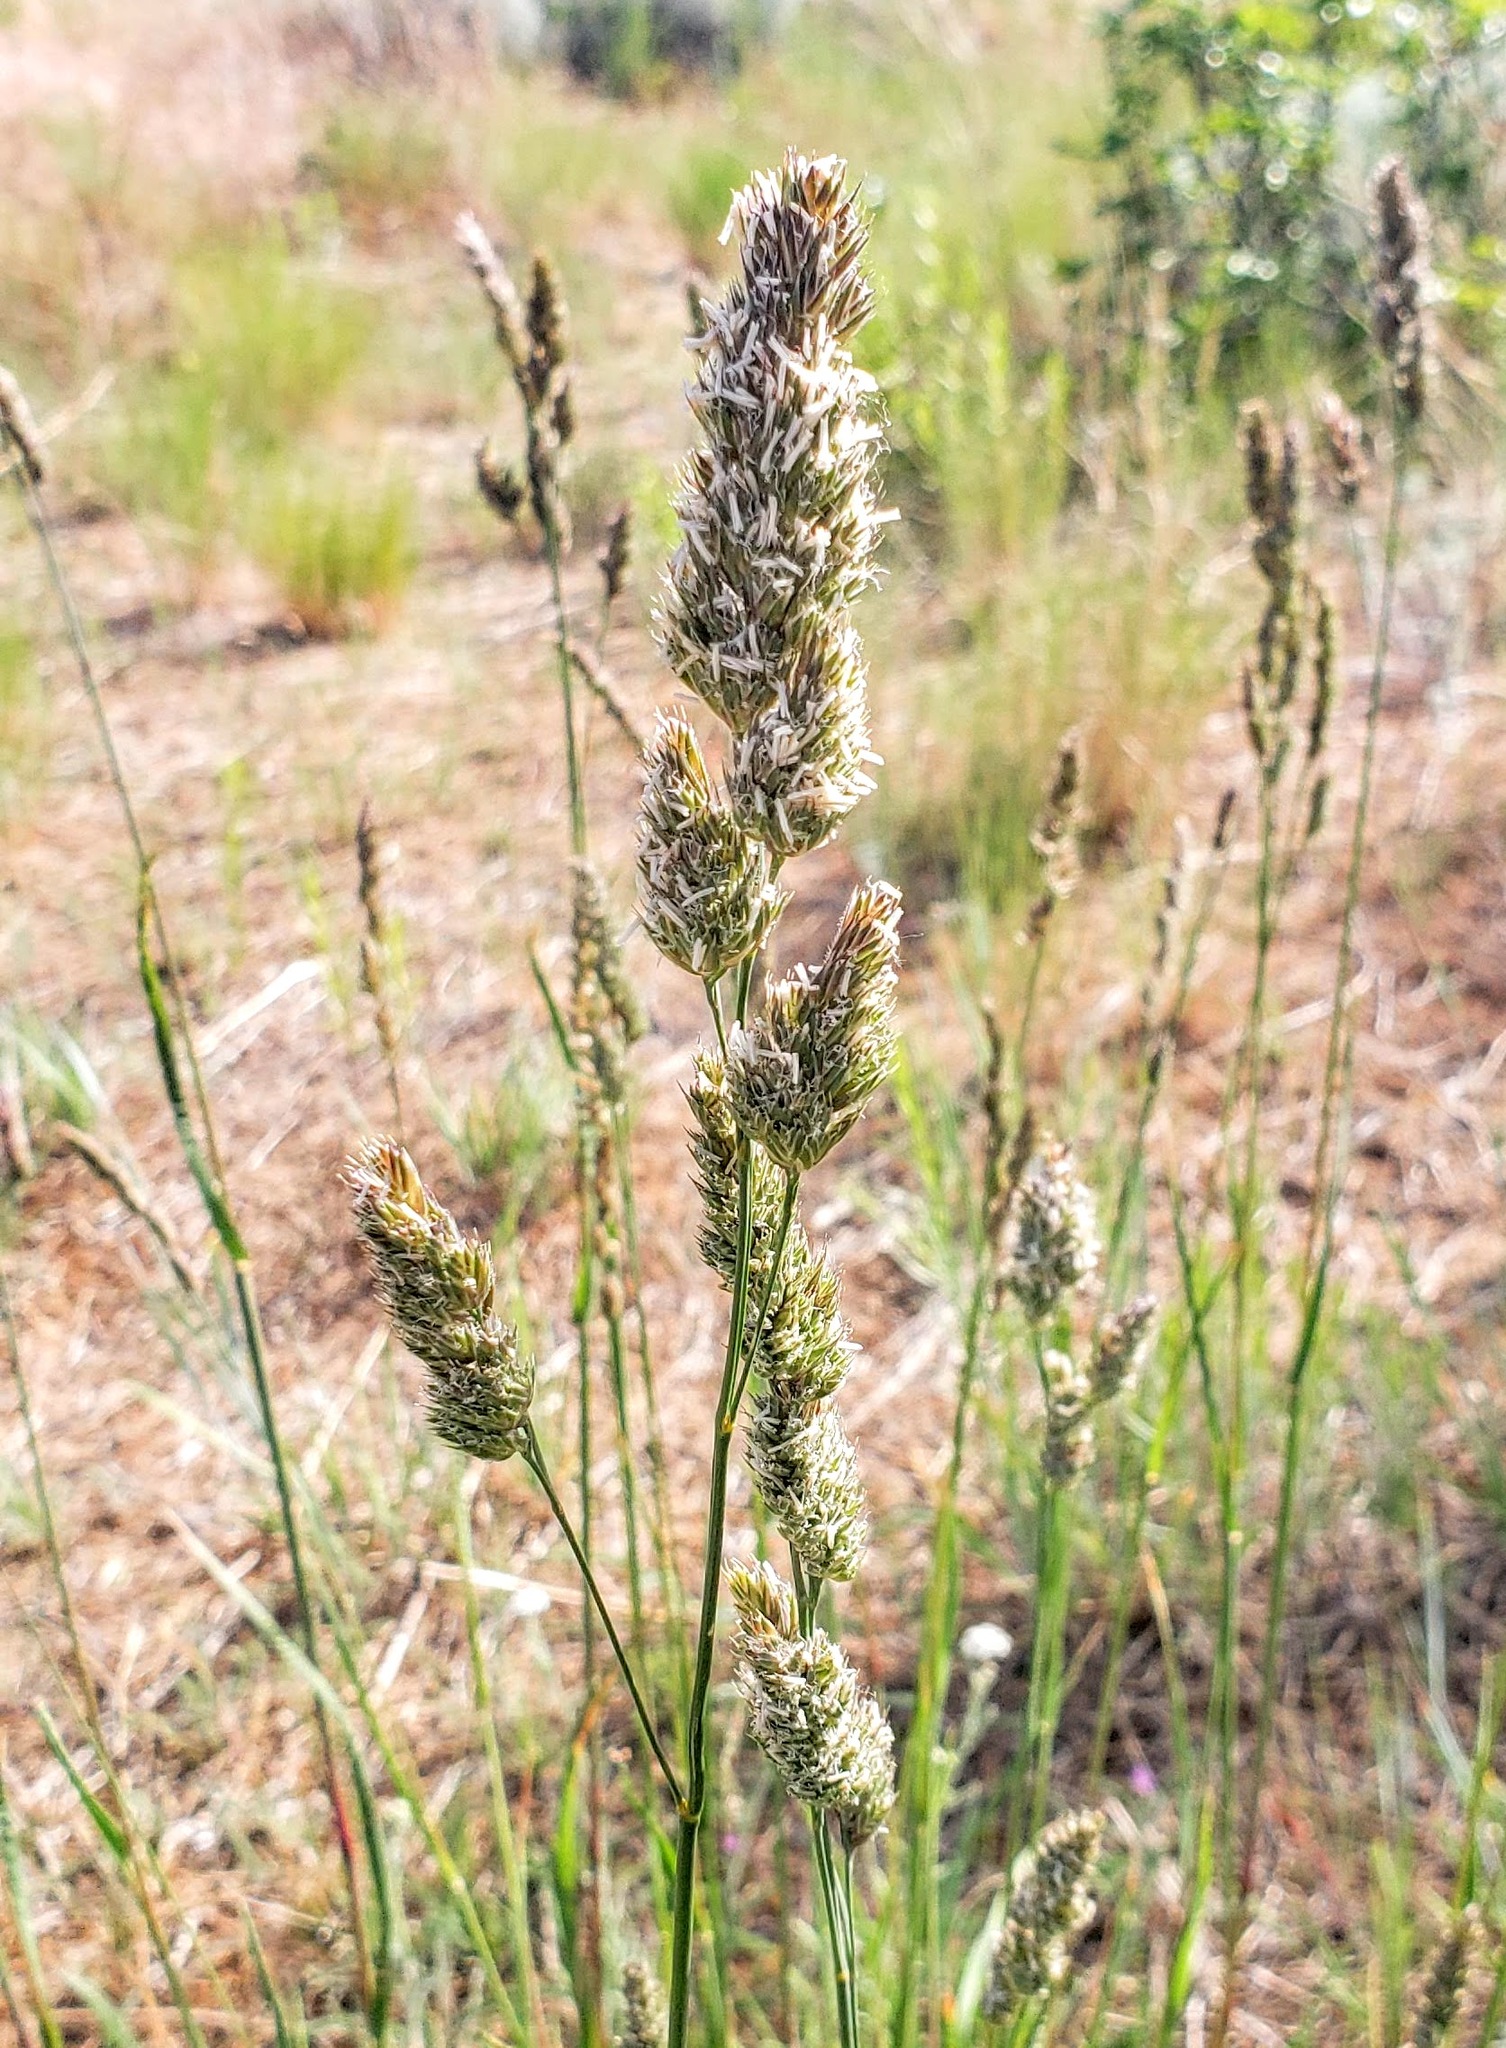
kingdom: Plantae
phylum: Tracheophyta
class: Liliopsida
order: Poales
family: Poaceae
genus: Dactylis
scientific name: Dactylis glomerata
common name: Orchardgrass
